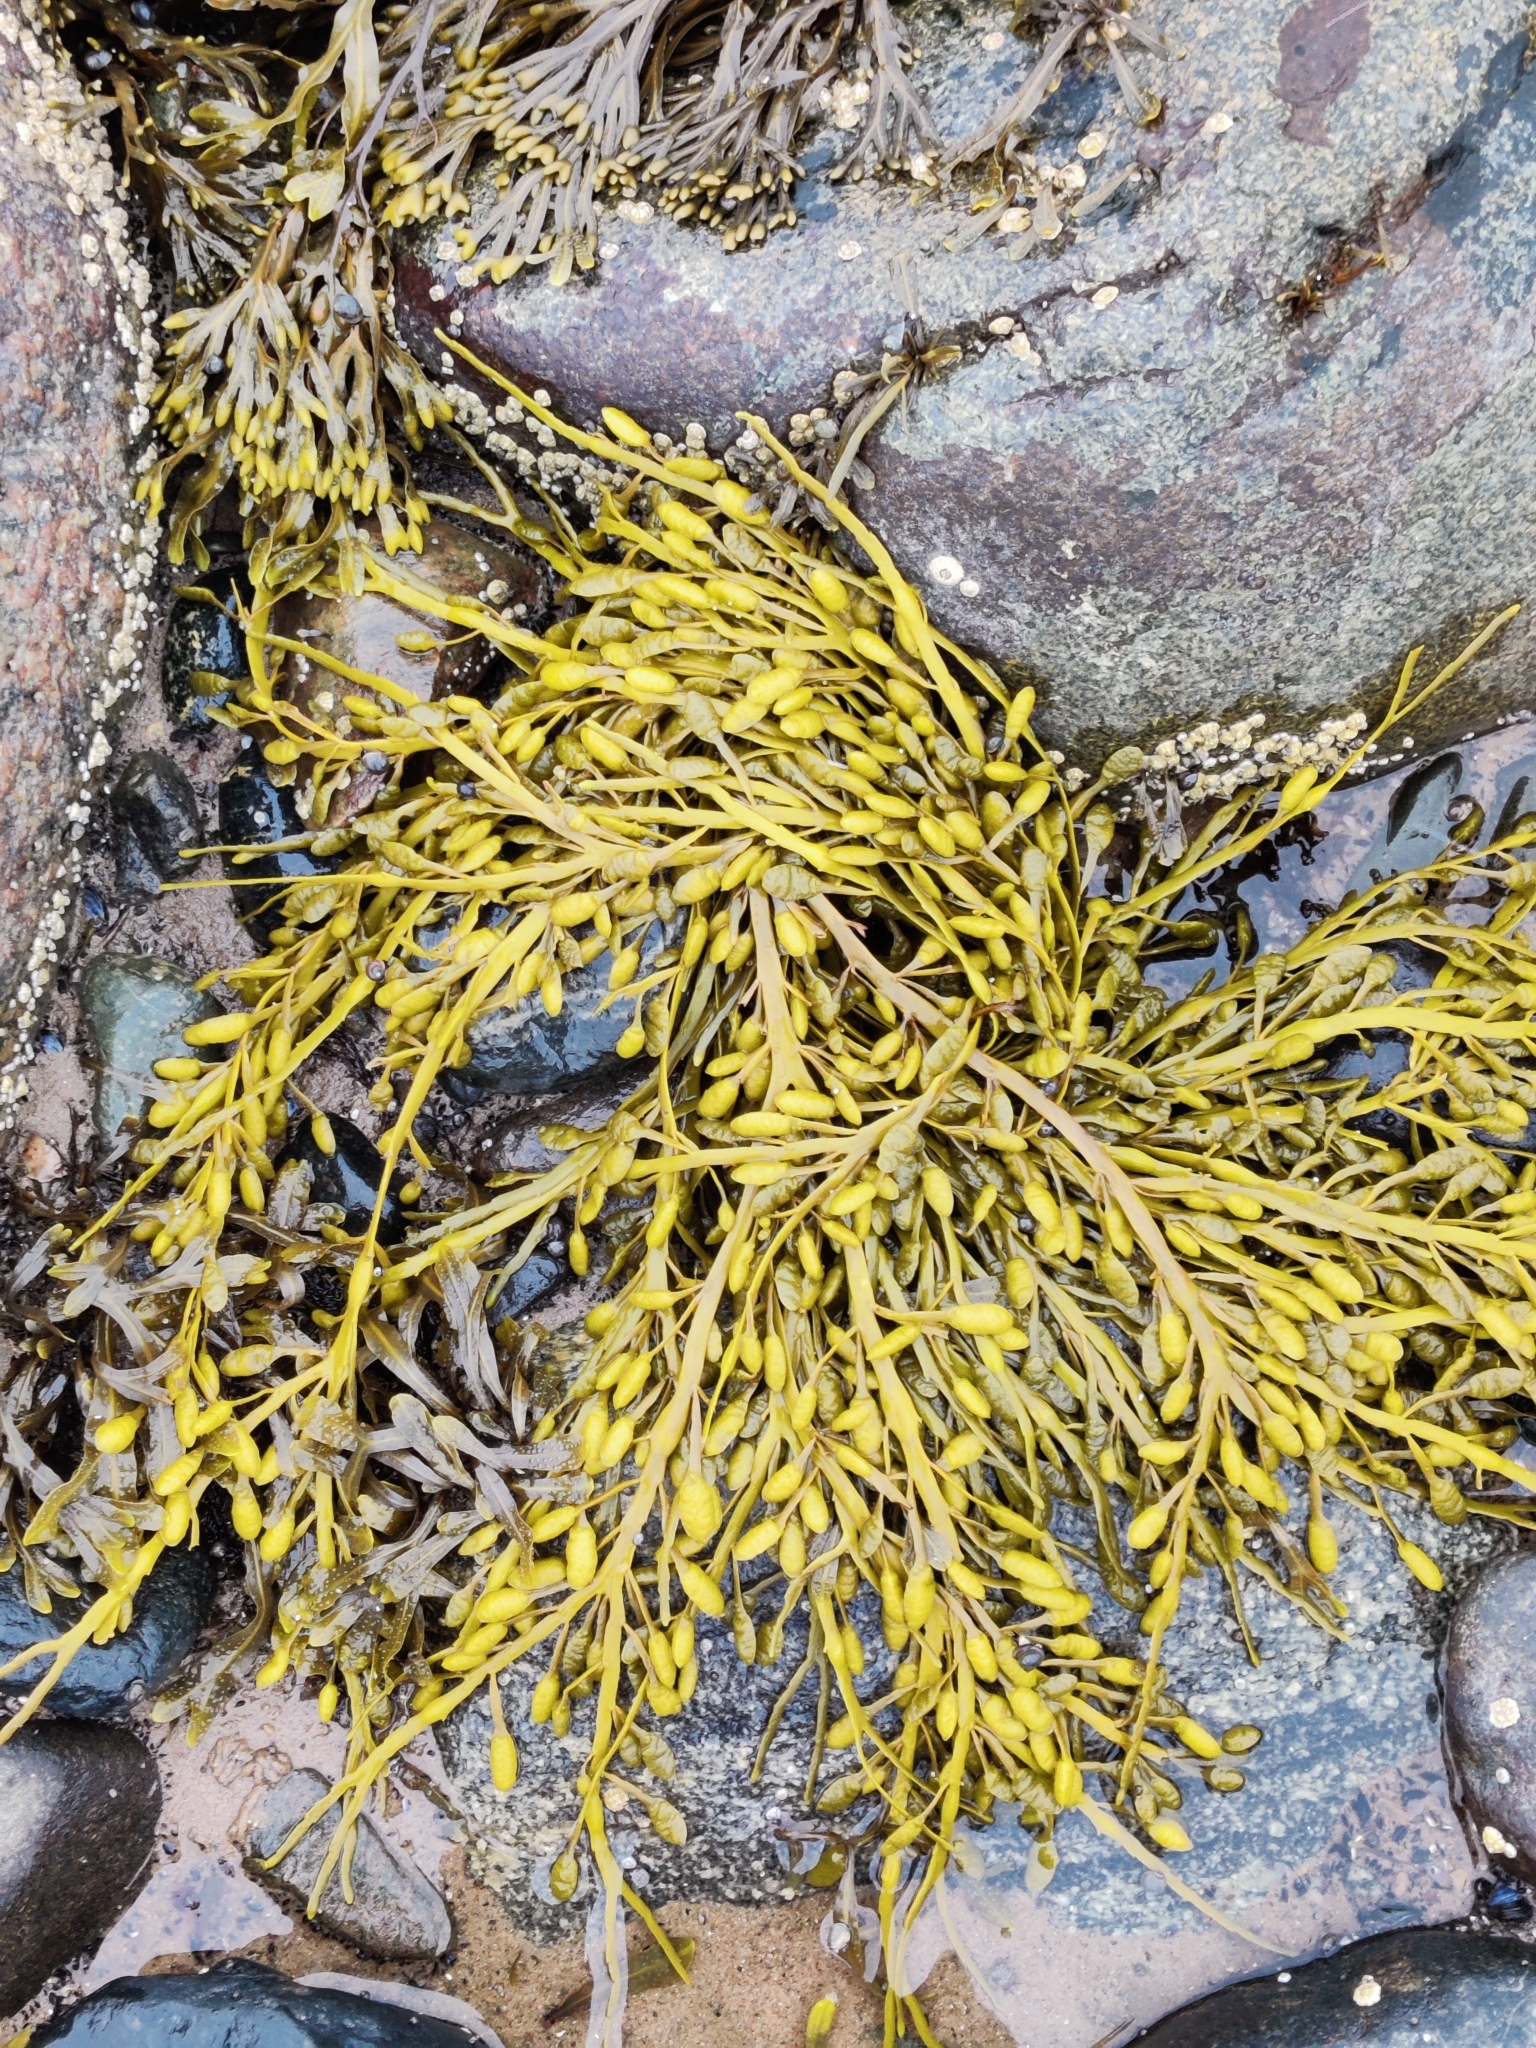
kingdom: Chromista
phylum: Ochrophyta
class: Phaeophyceae
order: Fucales
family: Fucaceae
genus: Ascophyllum
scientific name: Ascophyllum nodosum
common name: Knotted wrack
